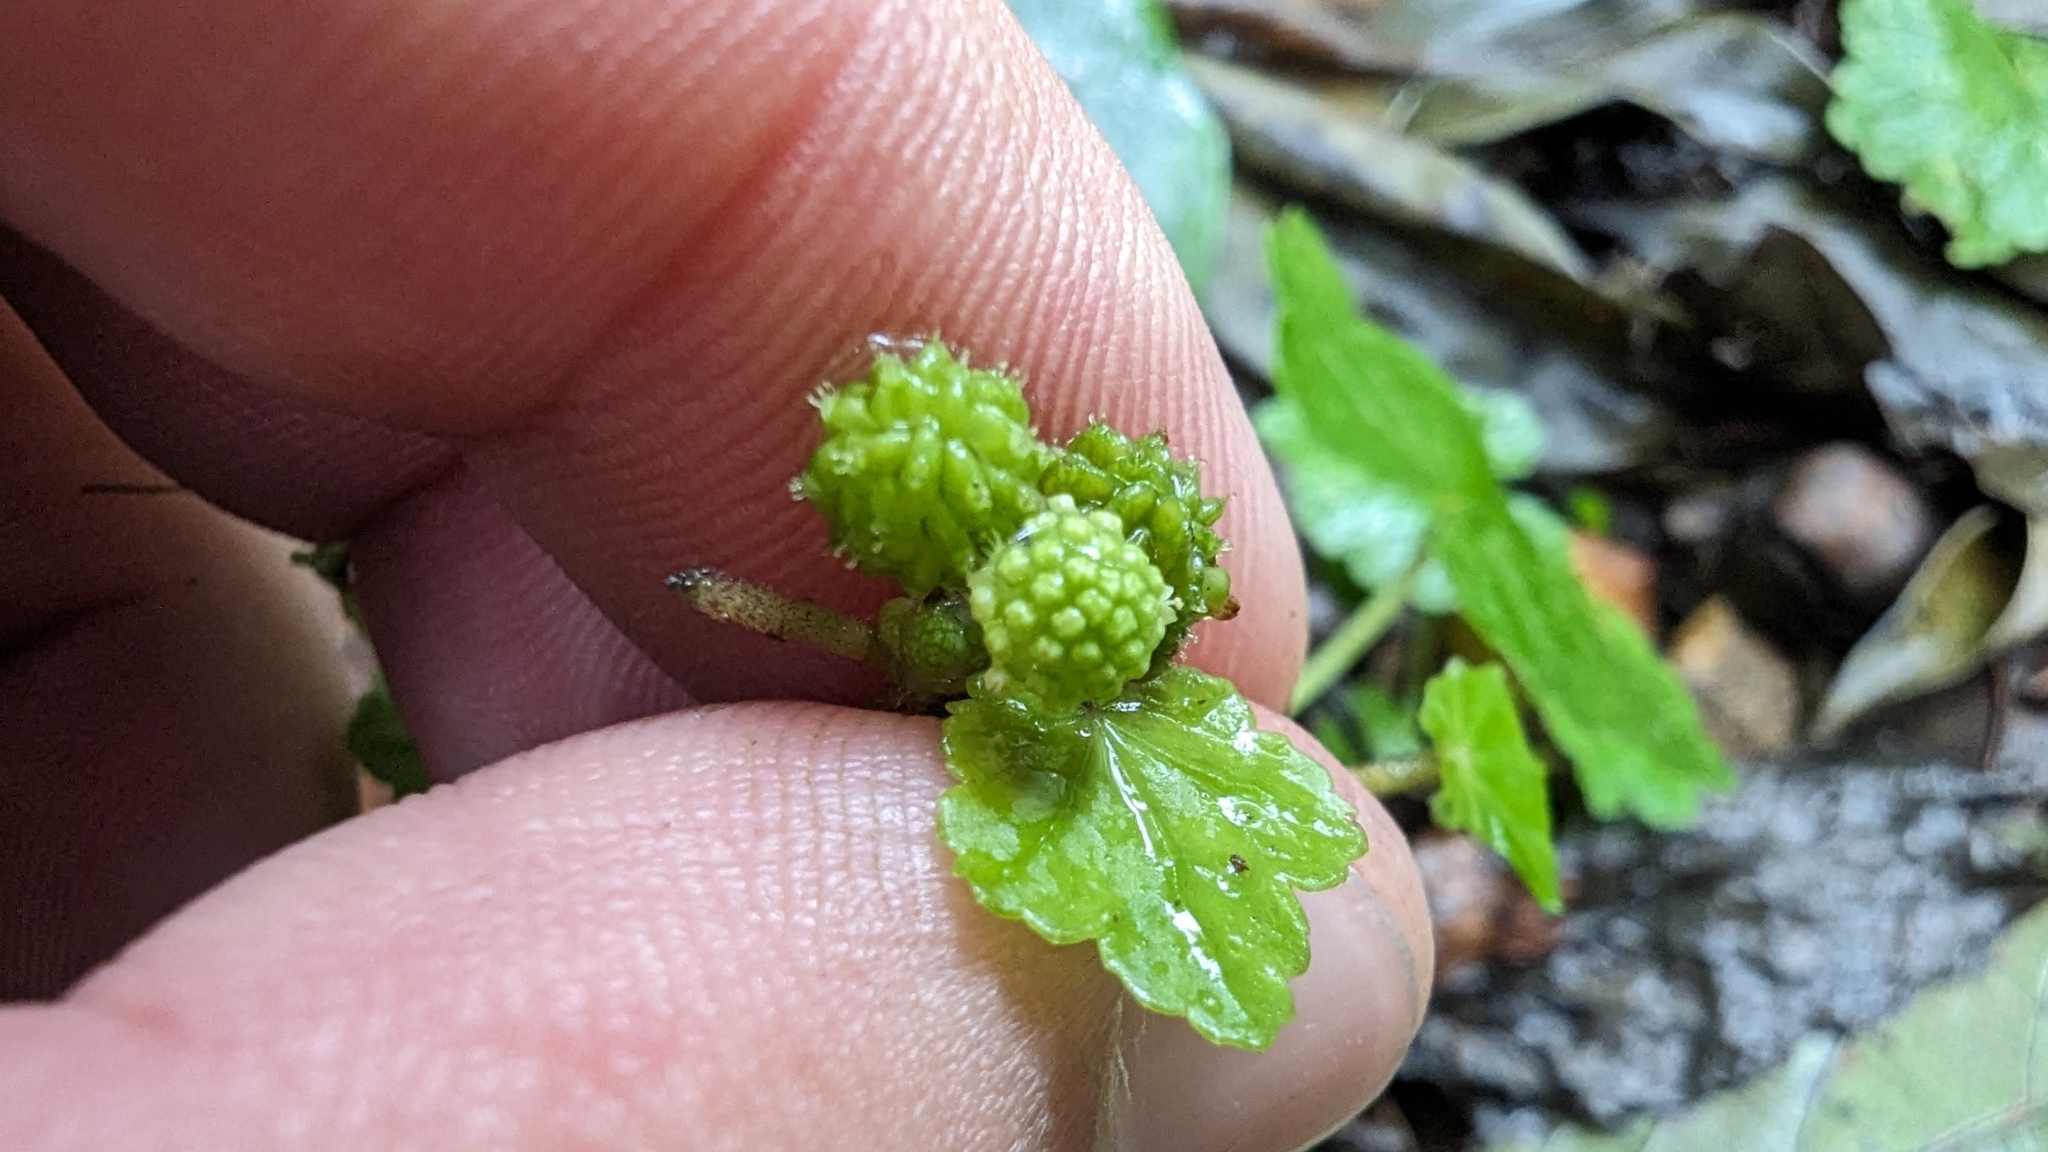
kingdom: Plantae
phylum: Tracheophyta
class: Magnoliopsida
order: Apiales
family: Araliaceae
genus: Hydrocotyle
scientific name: Hydrocotyle nepalensis
